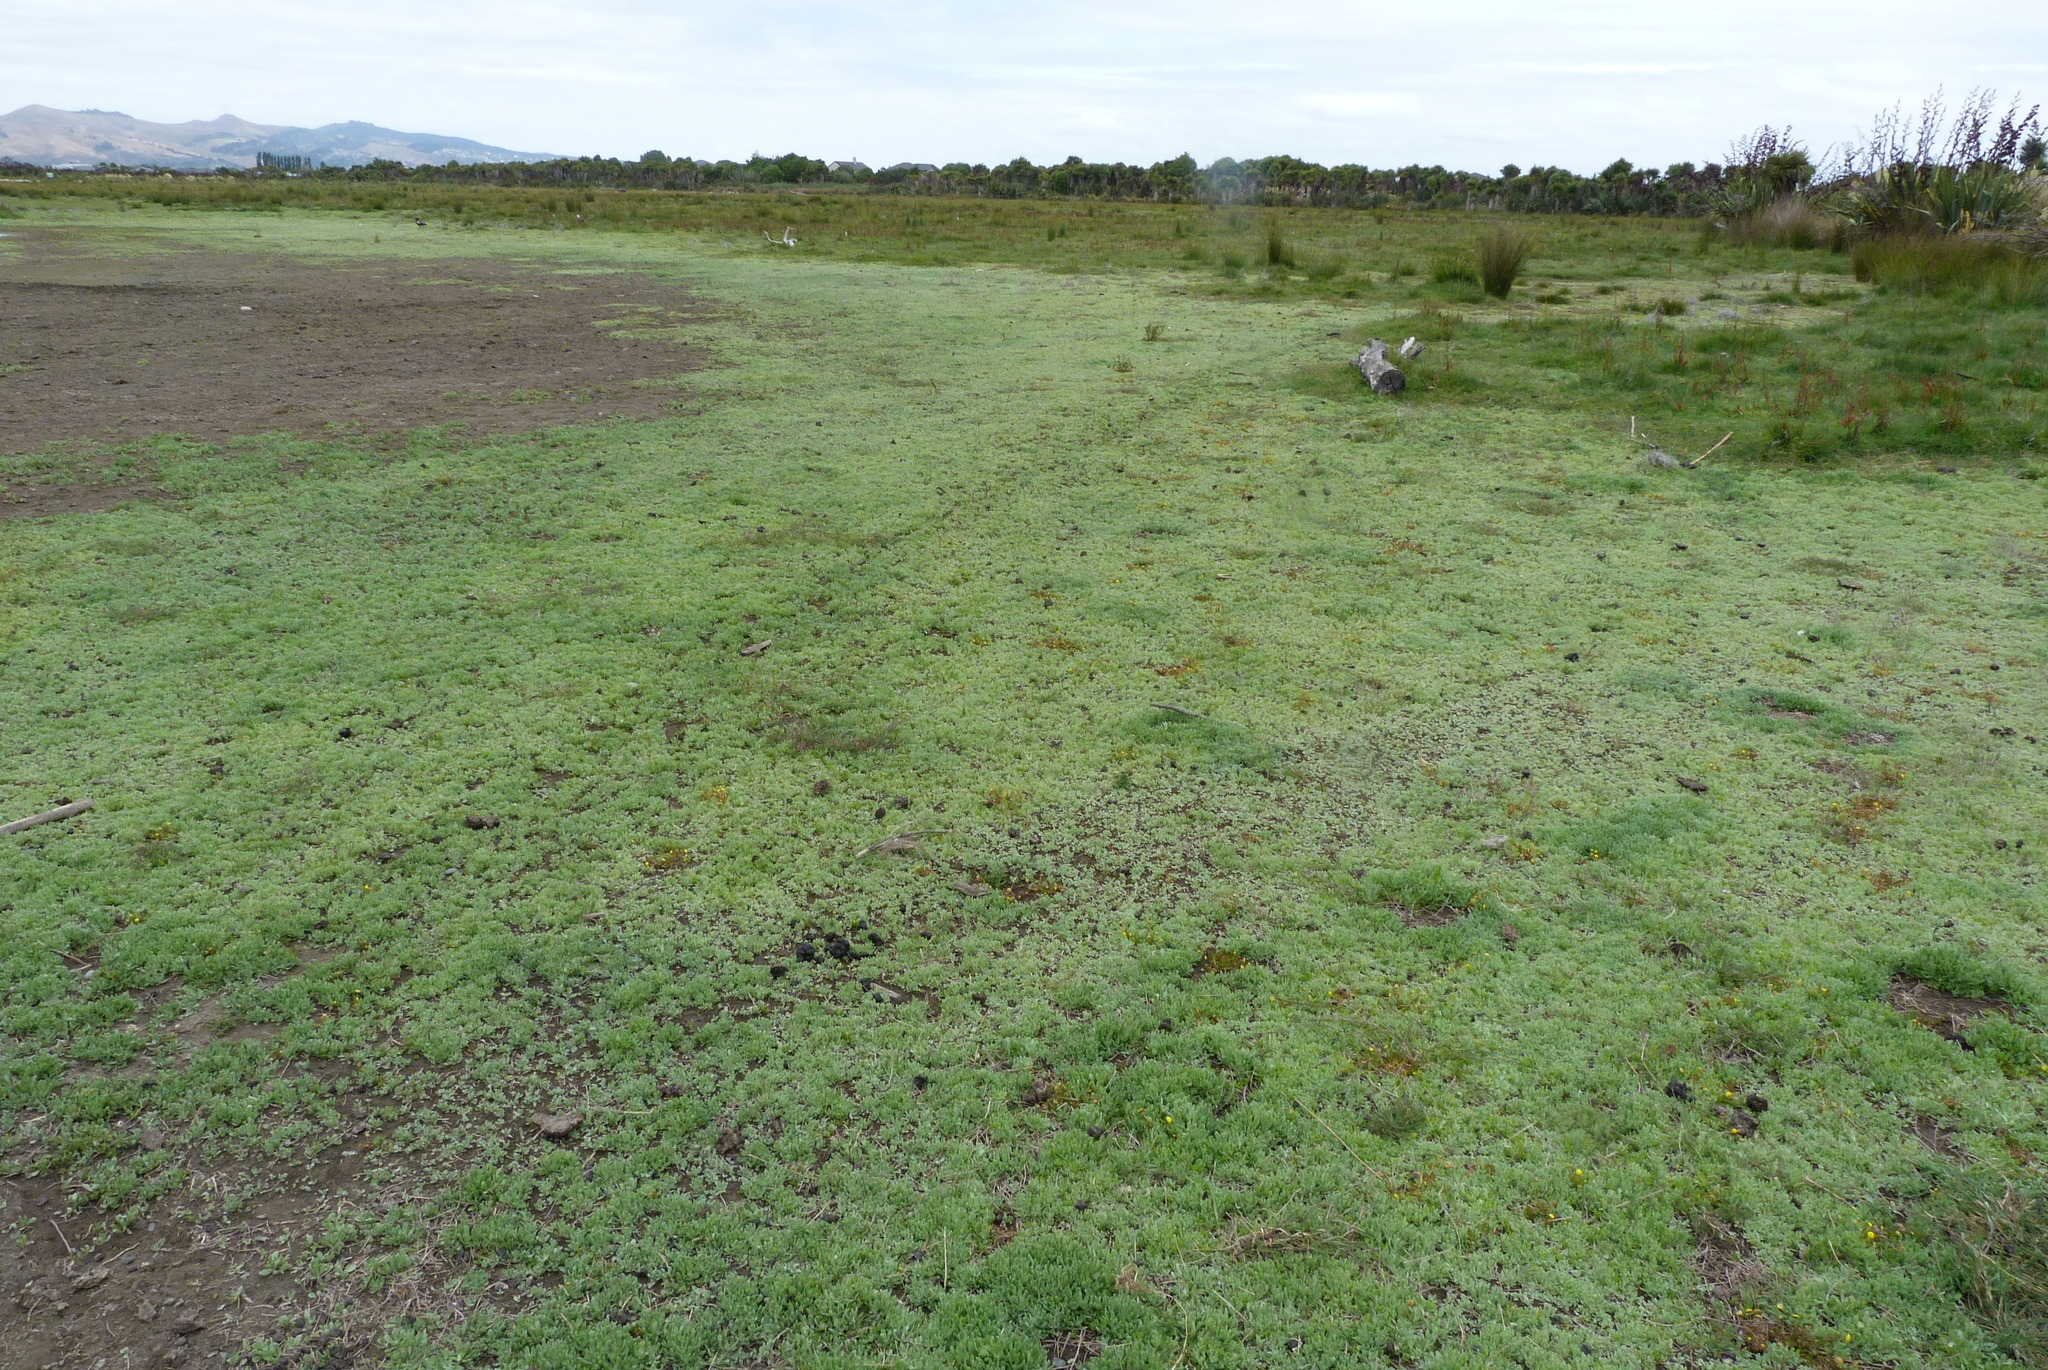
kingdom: Plantae
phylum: Tracheophyta
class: Magnoliopsida
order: Asterales
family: Asteraceae
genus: Helichrysum
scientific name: Helichrysum luteoalbum
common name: Daisy
